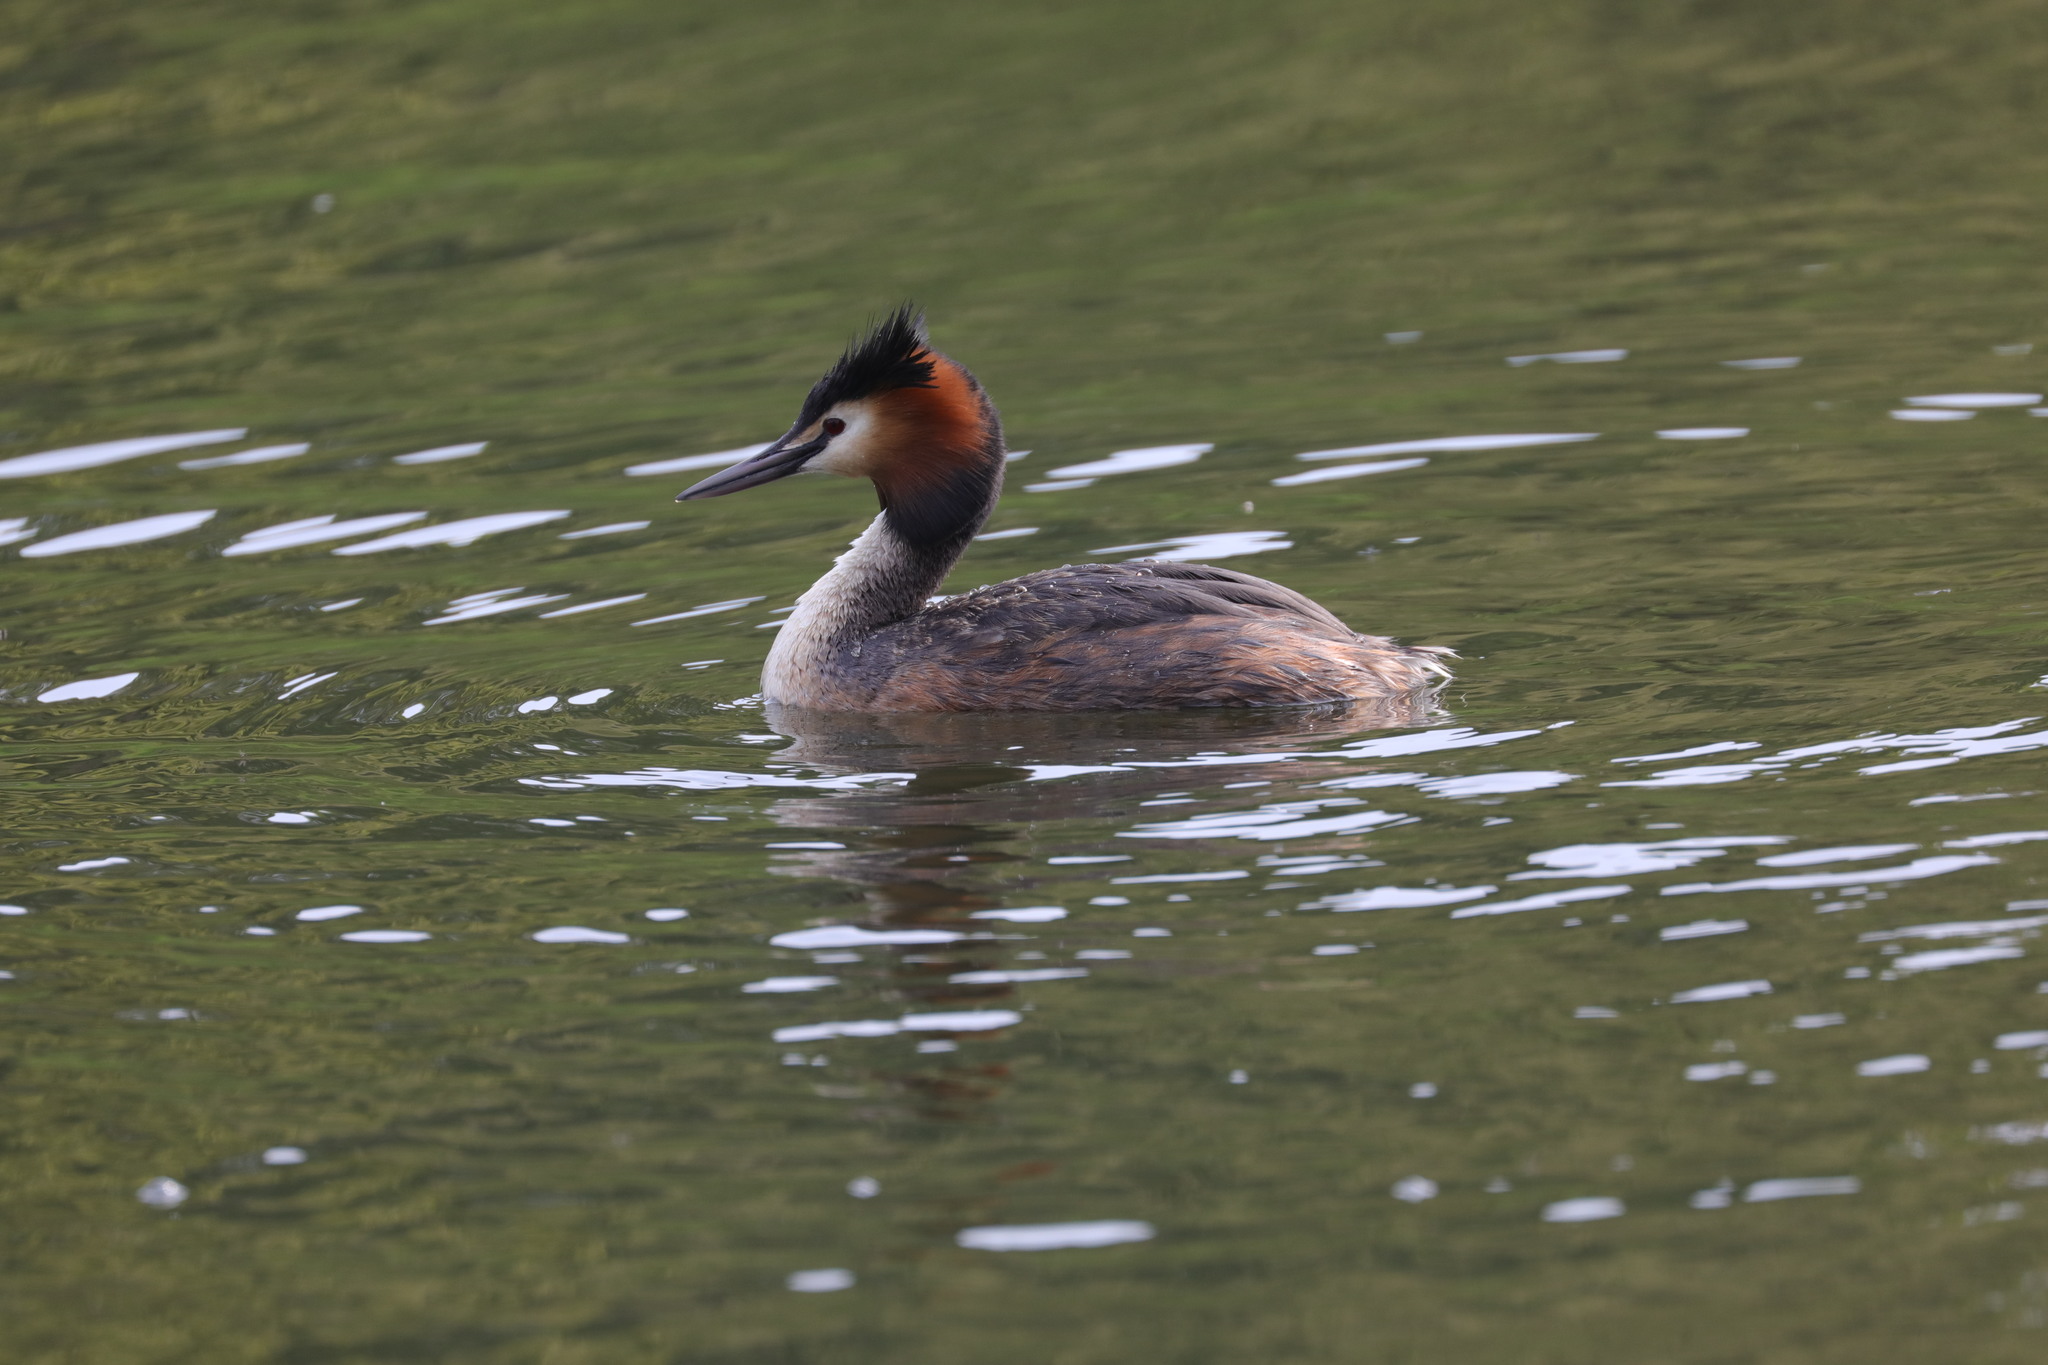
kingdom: Animalia
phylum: Chordata
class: Aves
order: Podicipediformes
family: Podicipedidae
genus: Podiceps
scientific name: Podiceps cristatus
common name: Great crested grebe
